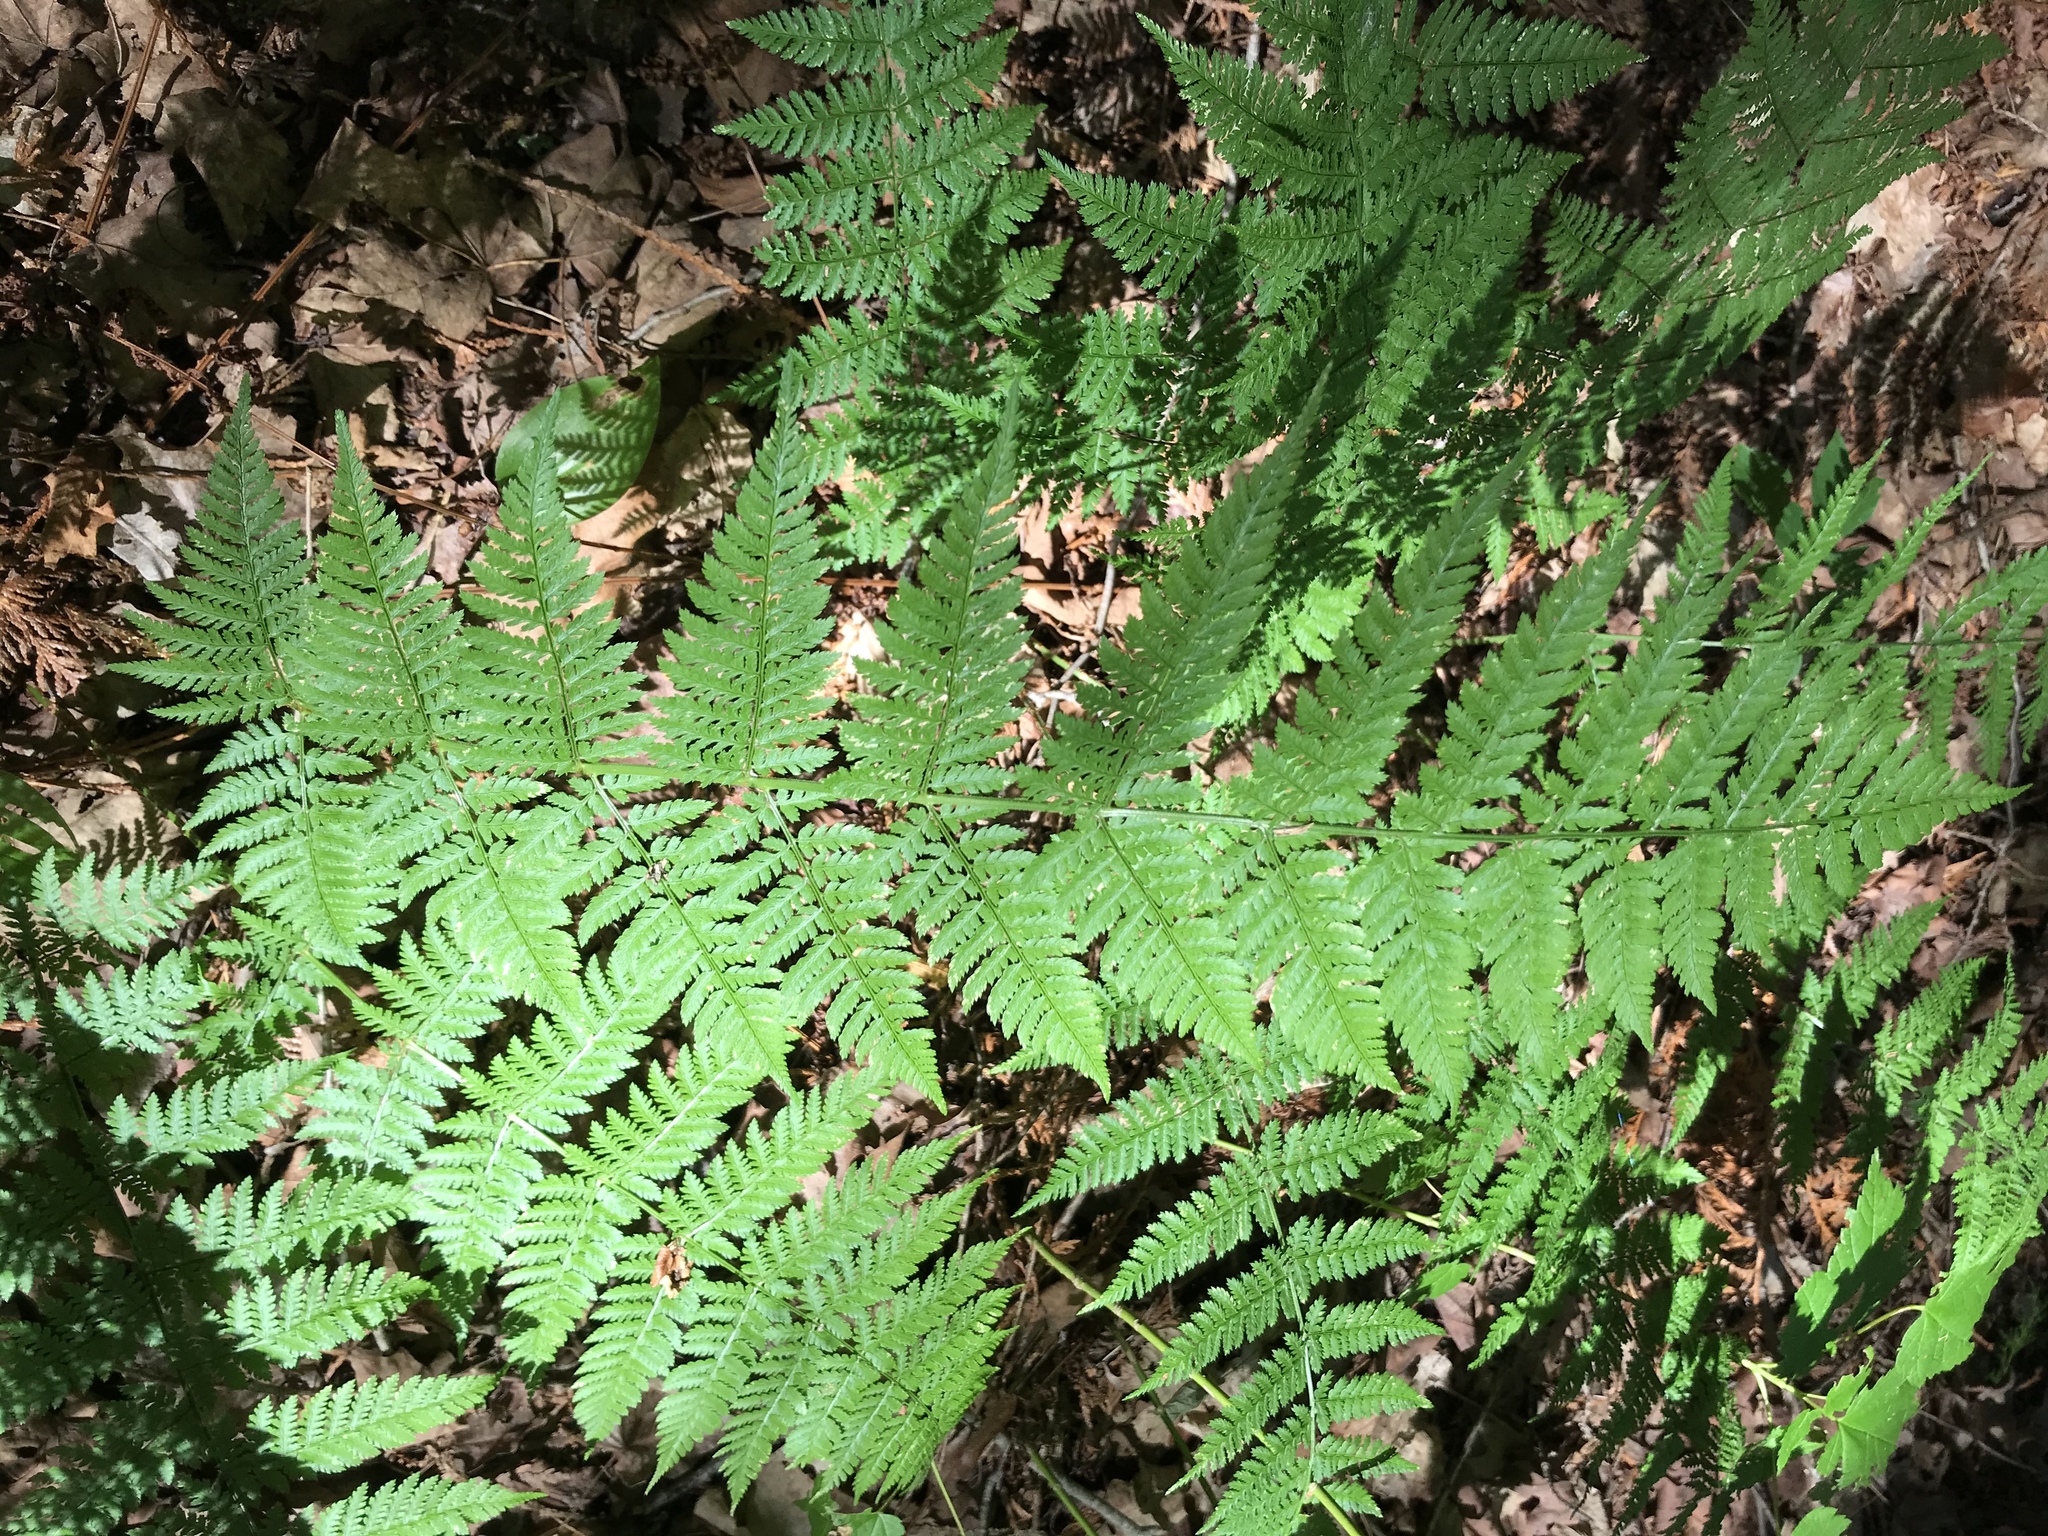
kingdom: Plantae
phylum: Tracheophyta
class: Polypodiopsida
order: Polypodiales
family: Dryopteridaceae
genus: Dryopteris
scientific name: Dryopteris intermedia
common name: Evergreen wood fern
